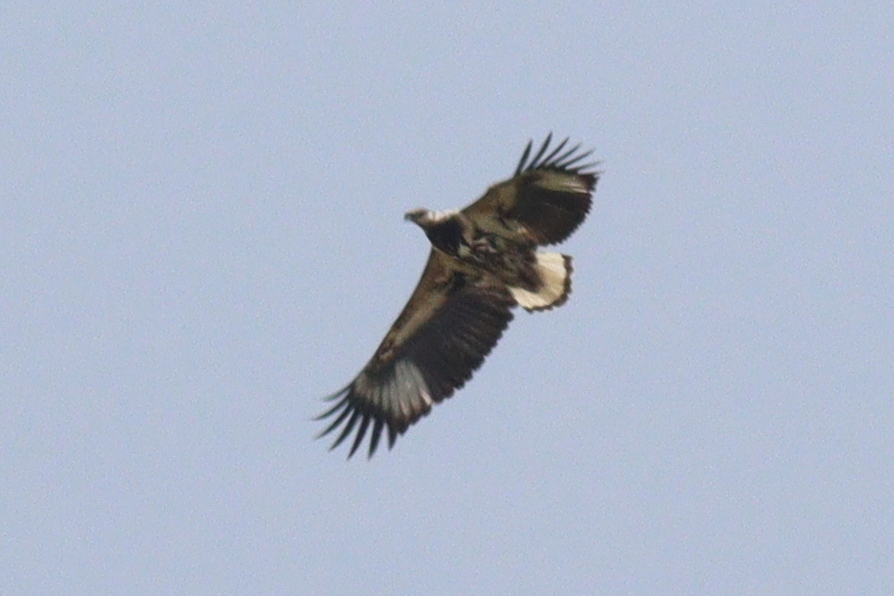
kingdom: Animalia
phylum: Chordata
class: Aves
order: Accipitriformes
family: Accipitridae
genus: Haliaeetus
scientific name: Haliaeetus vocifer
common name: African fish eagle
